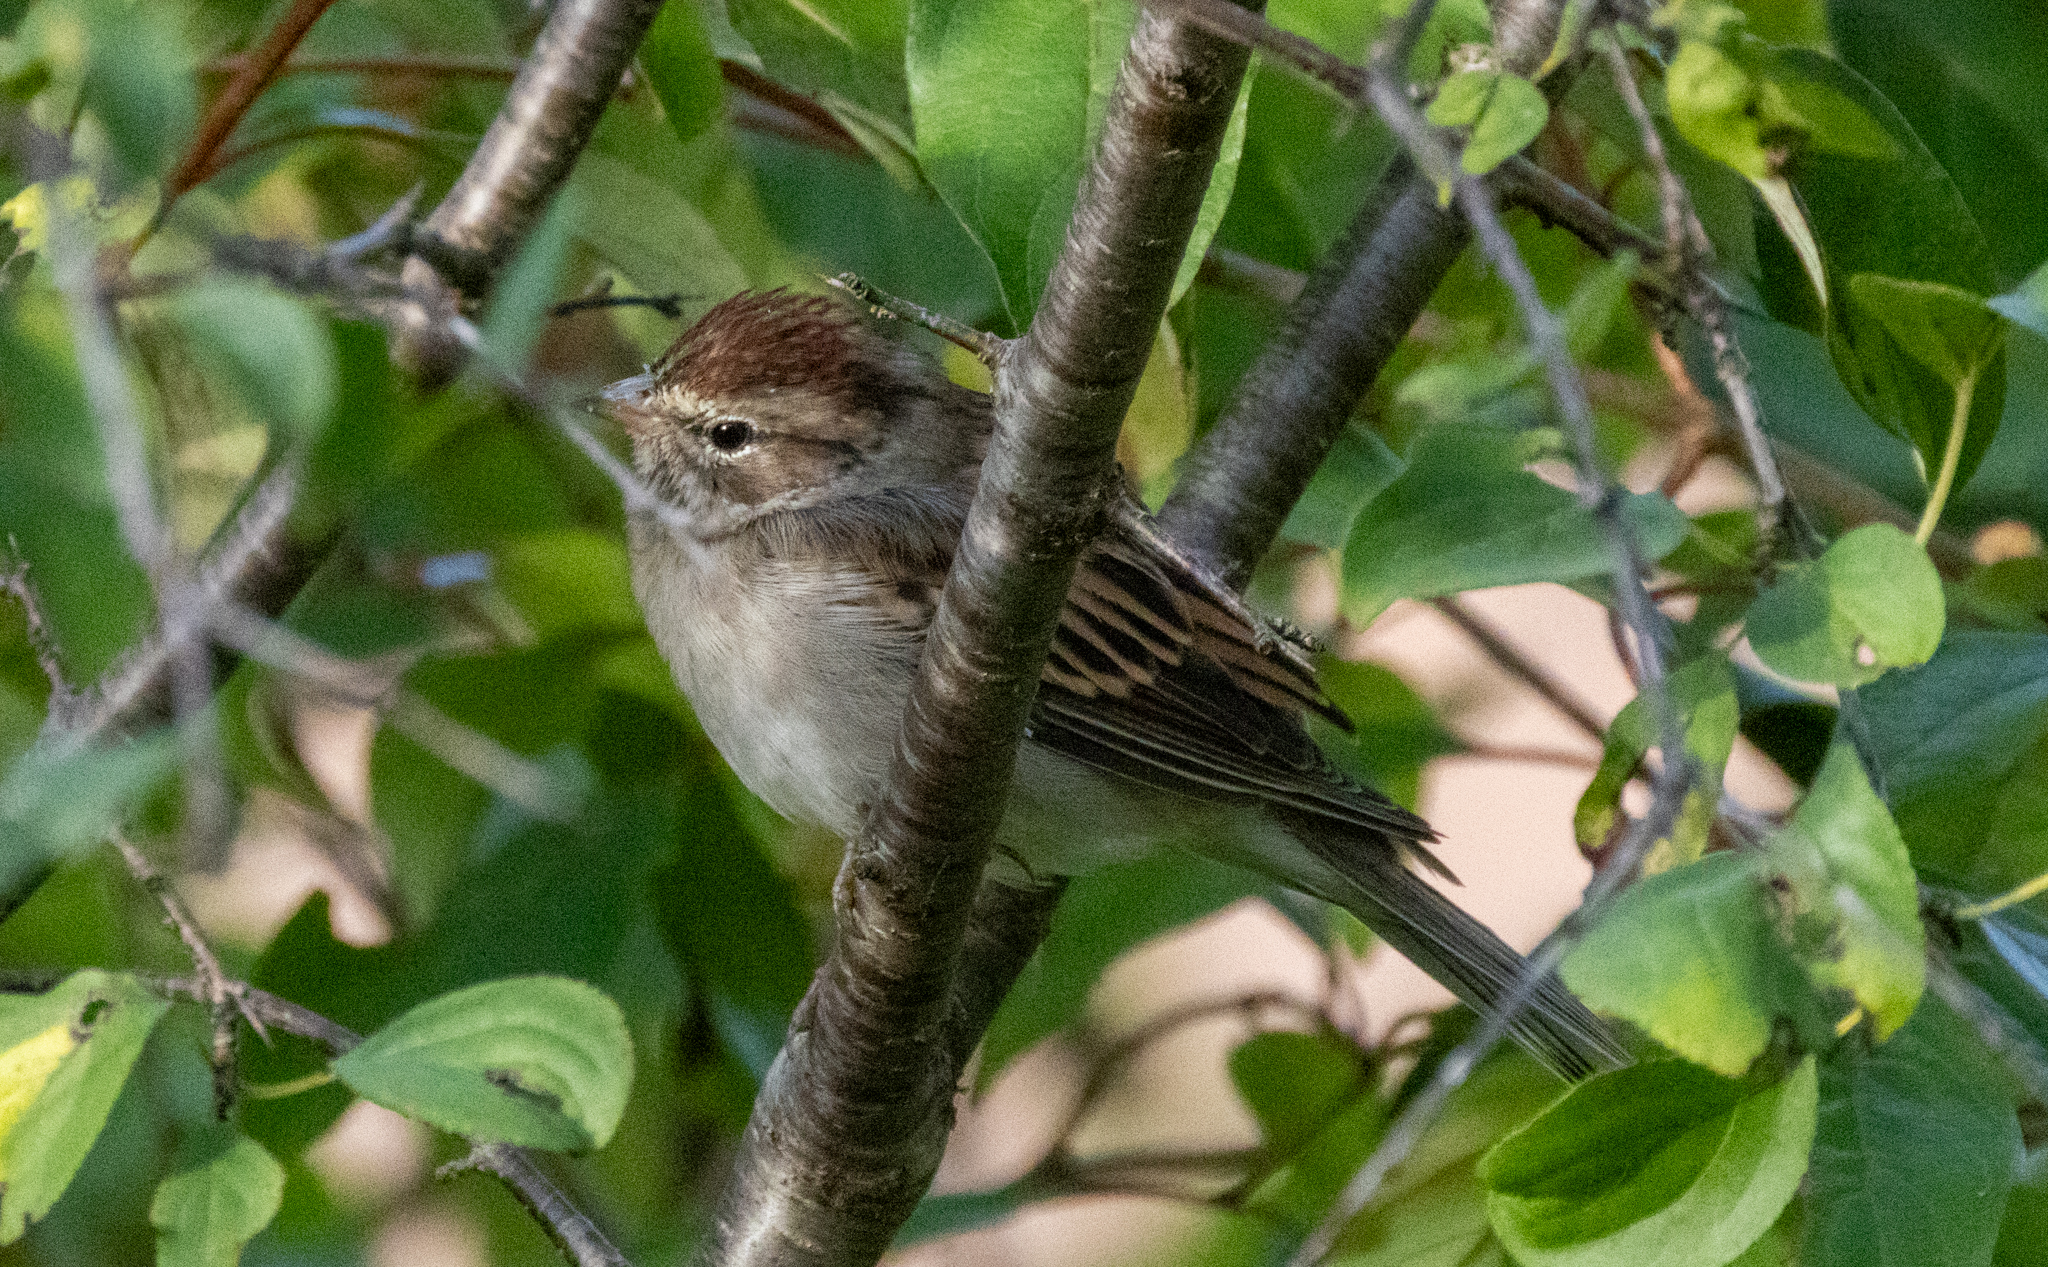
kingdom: Animalia
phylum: Chordata
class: Aves
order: Passeriformes
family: Passerellidae
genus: Spizella
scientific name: Spizella passerina
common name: Chipping sparrow
